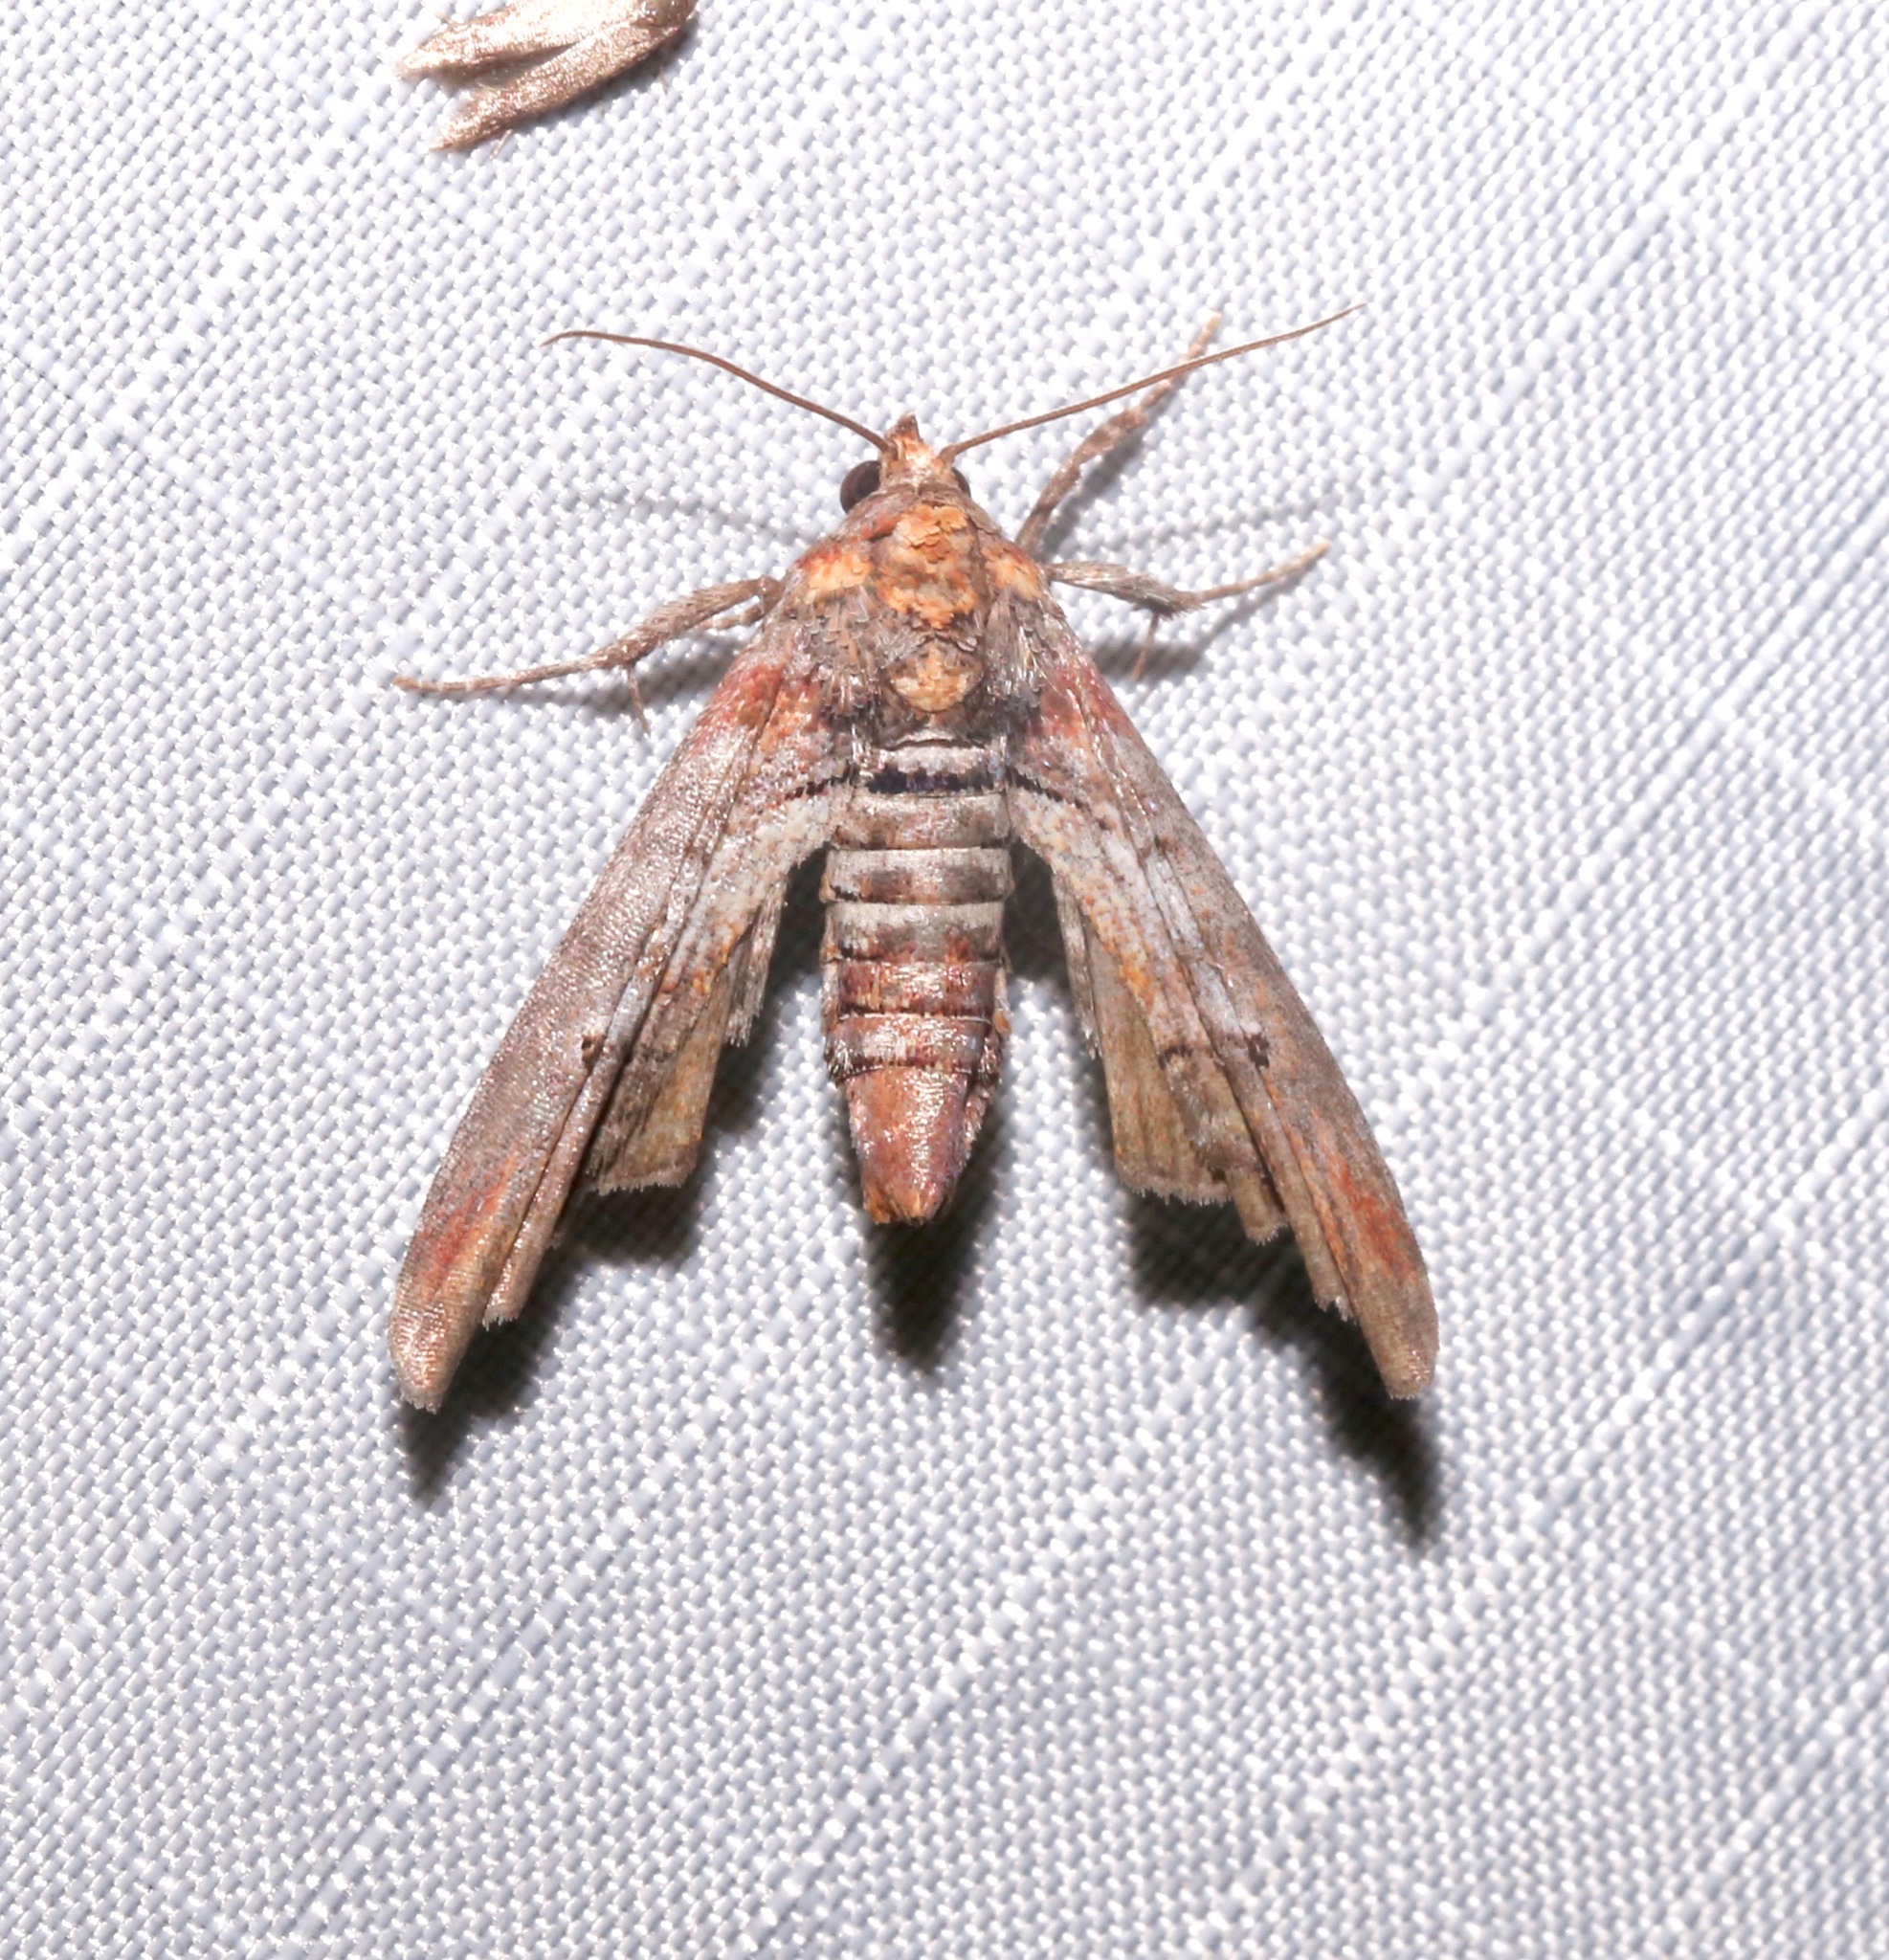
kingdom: Animalia
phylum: Arthropoda
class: Insecta
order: Lepidoptera
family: Euteliidae
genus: Marathyssa
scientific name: Marathyssa inficita
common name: Dark marathyssa moth
